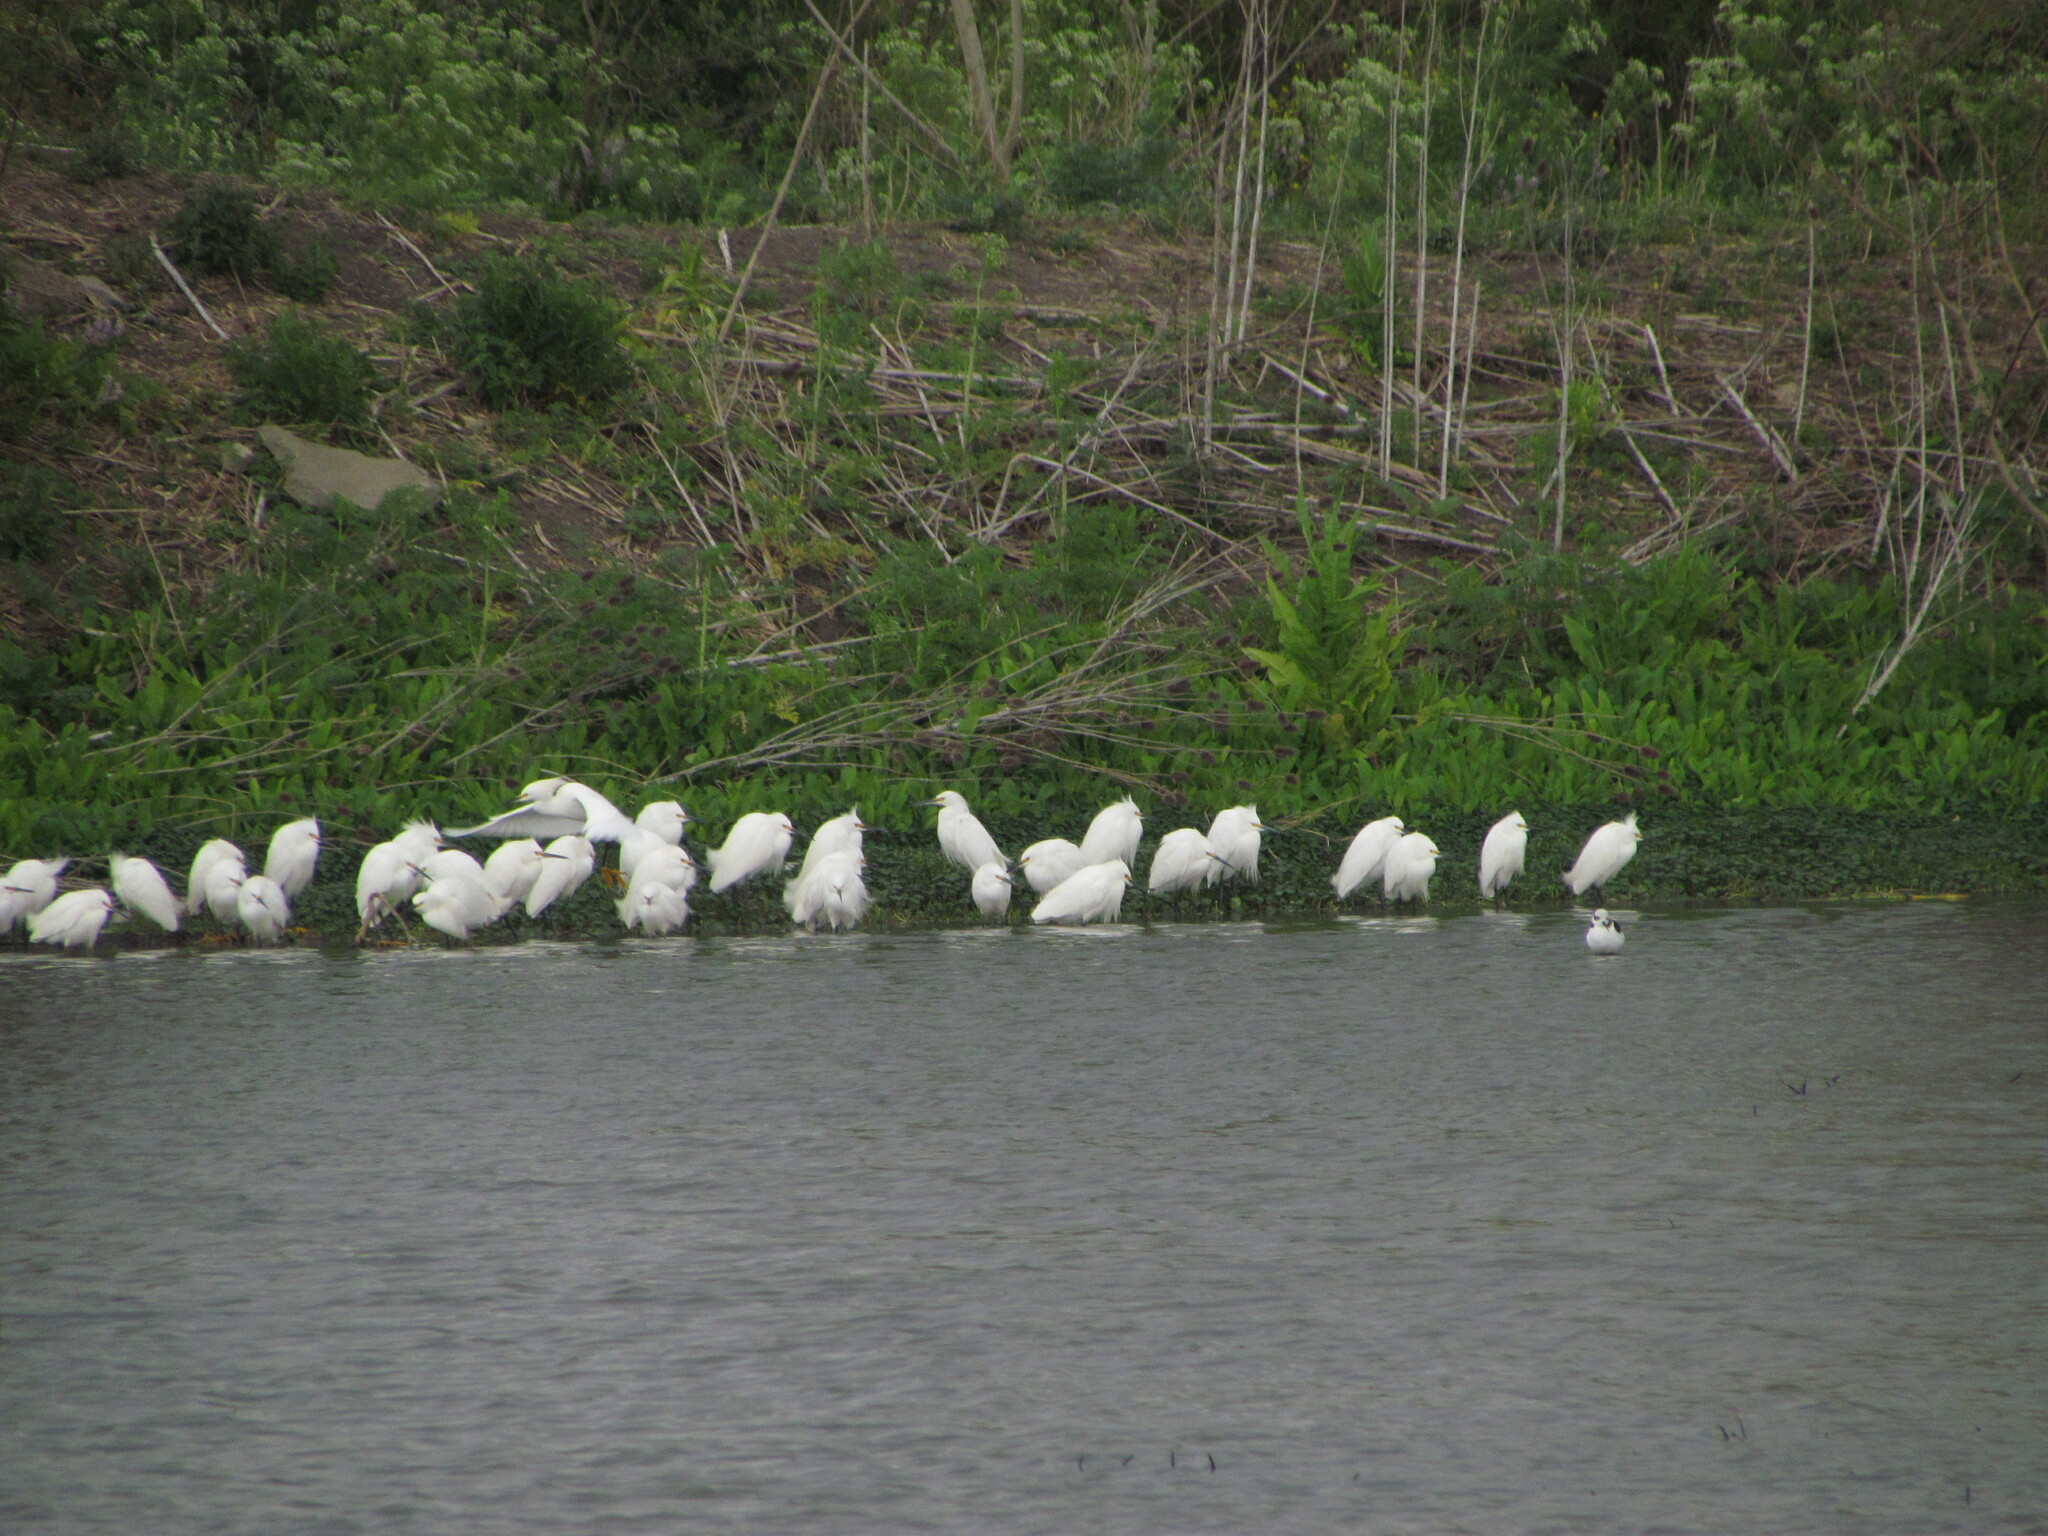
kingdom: Animalia
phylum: Chordata
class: Aves
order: Pelecaniformes
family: Ardeidae
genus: Egretta
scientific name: Egretta thula
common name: Snowy egret
